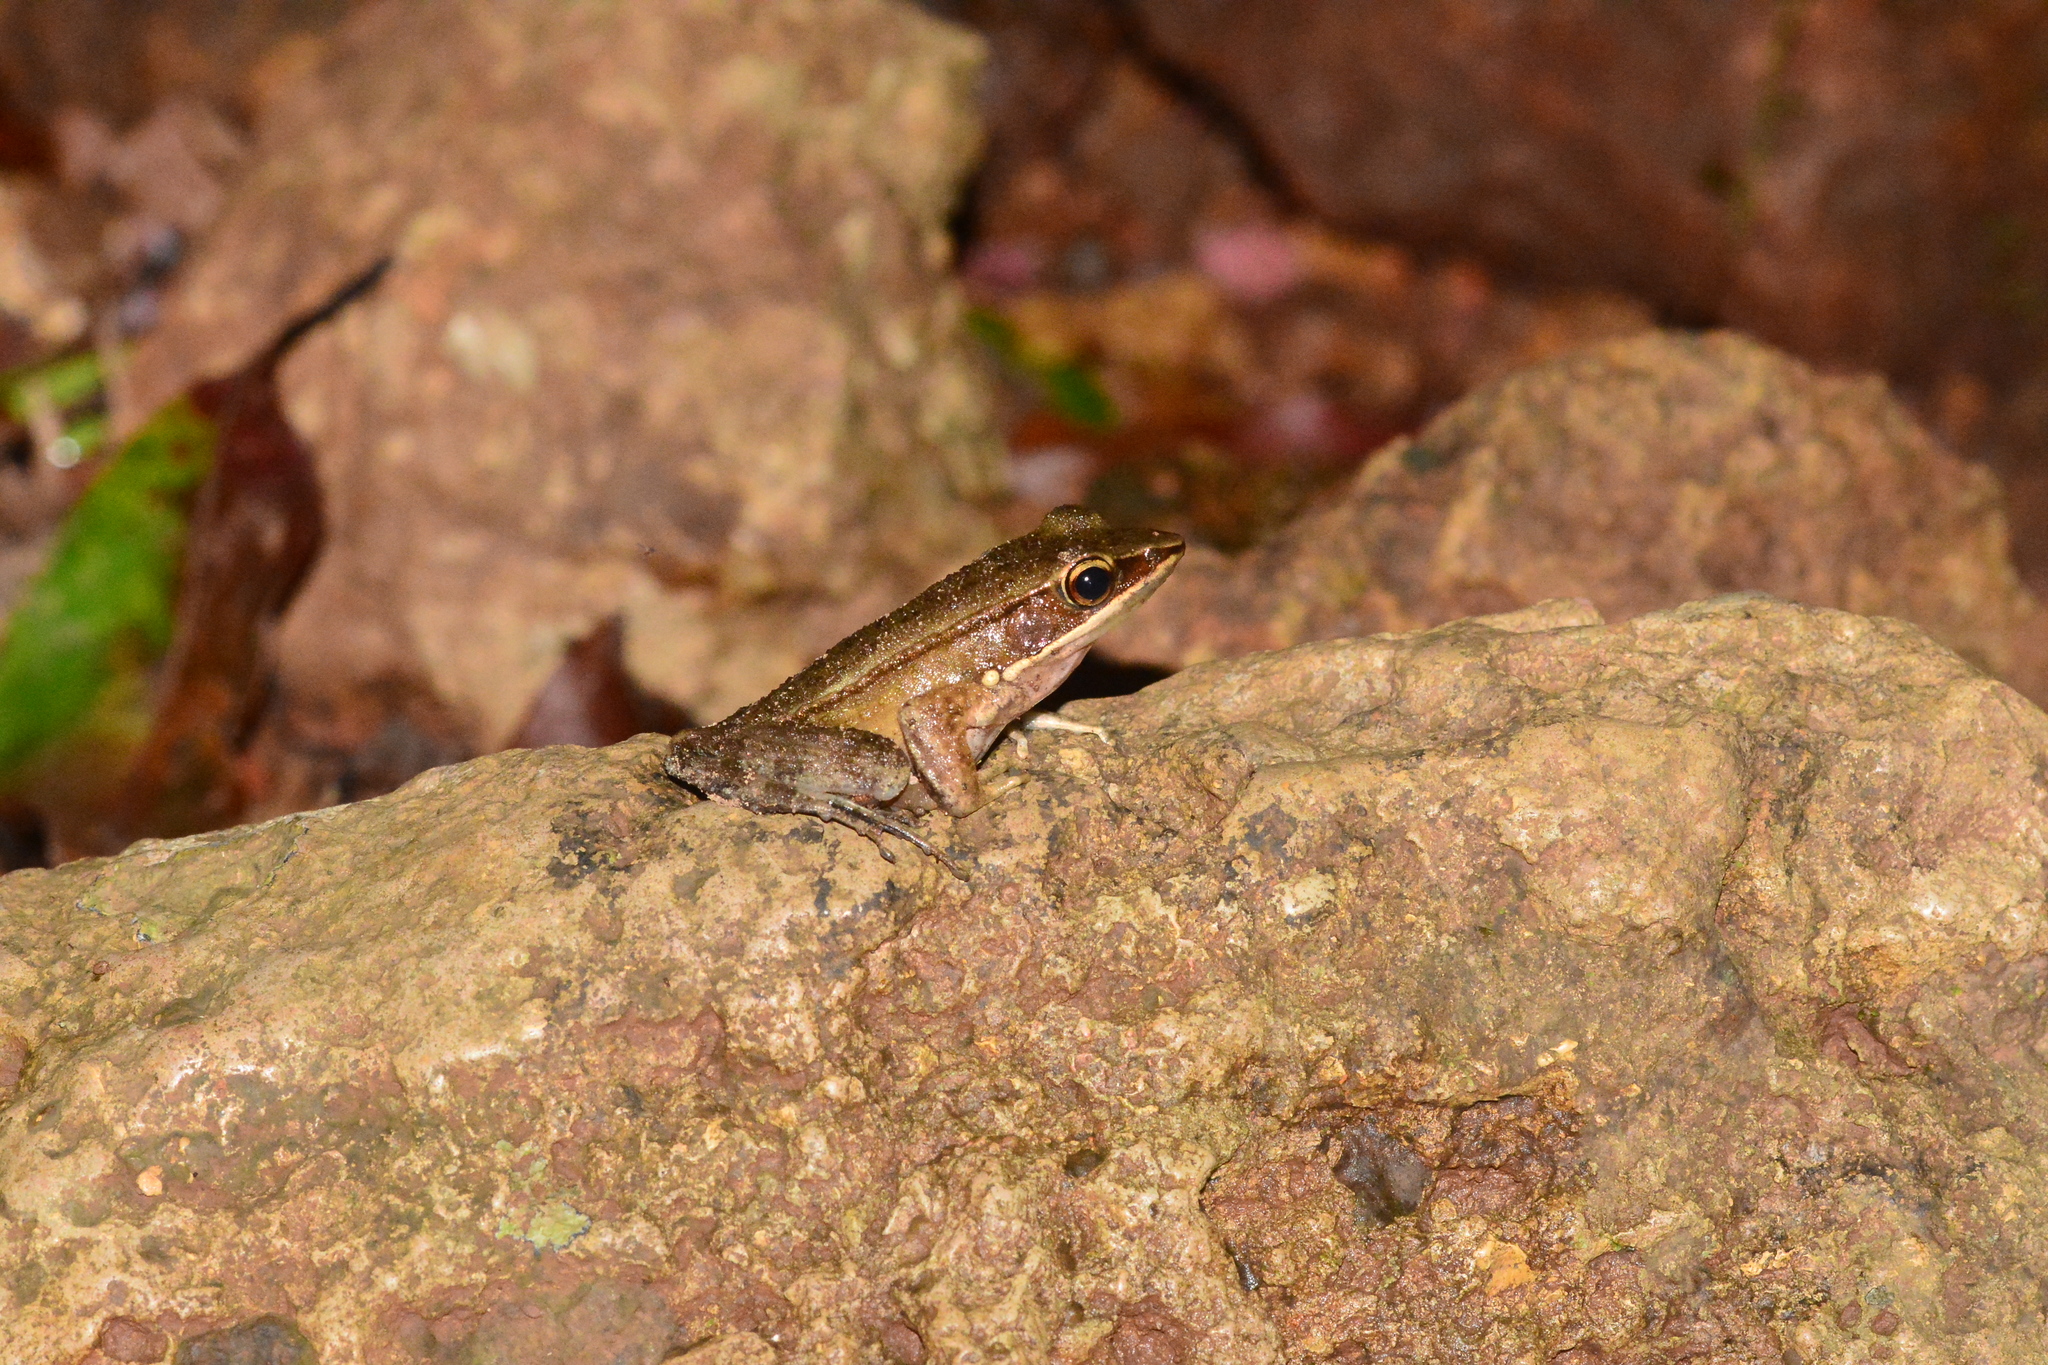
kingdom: Animalia
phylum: Chordata
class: Amphibia
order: Anura
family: Ranidae
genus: Indosylvirana
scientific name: Indosylvirana caesari
